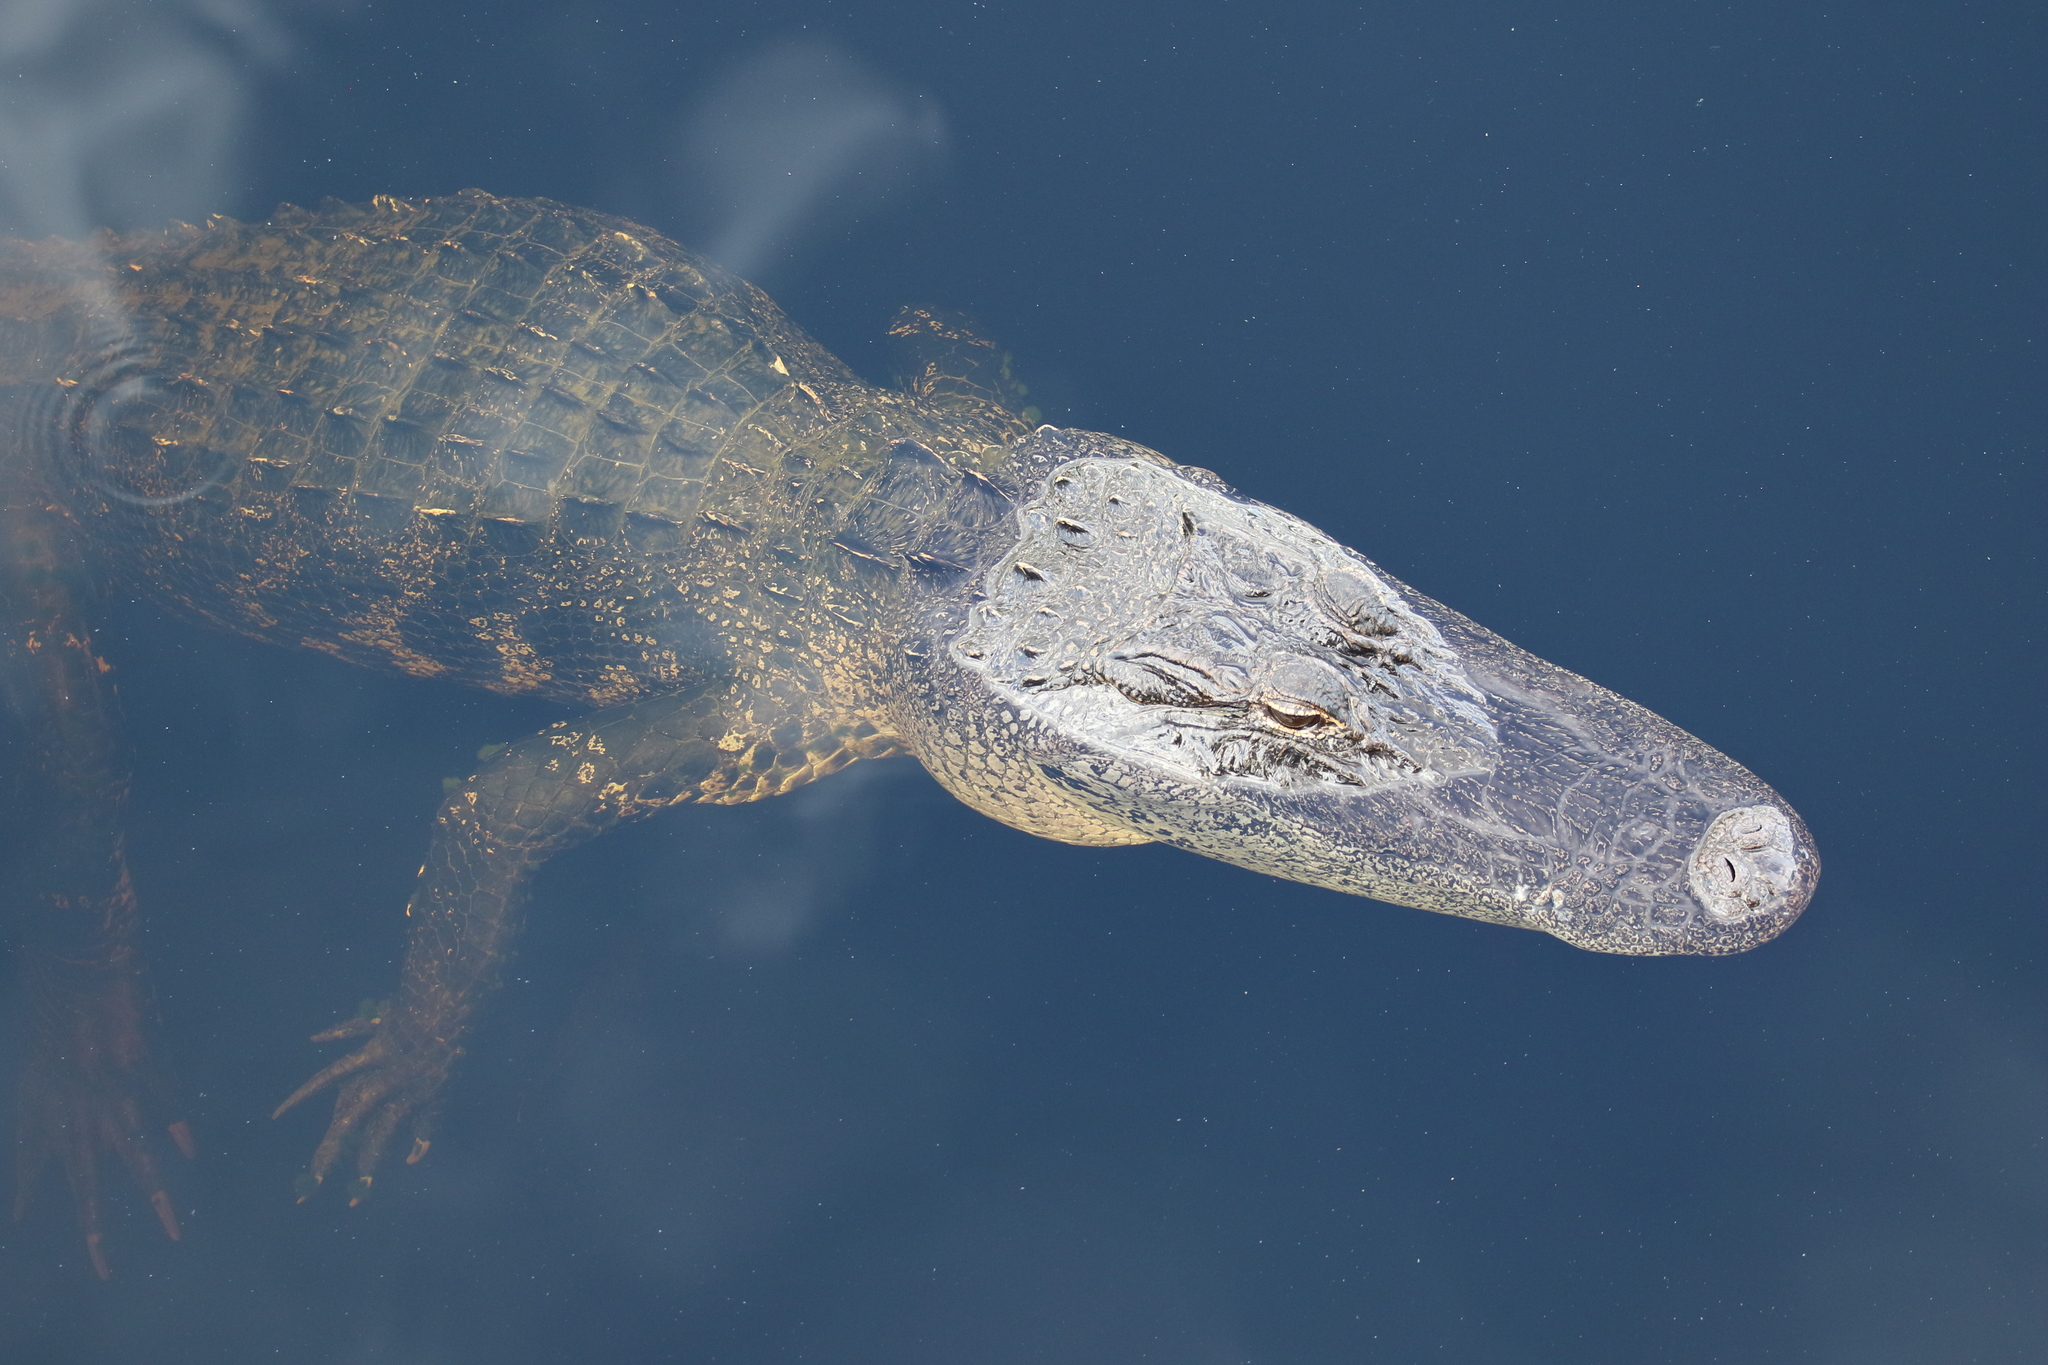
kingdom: Animalia
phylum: Chordata
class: Crocodylia
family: Alligatoridae
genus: Alligator
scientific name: Alligator mississippiensis
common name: American alligator
